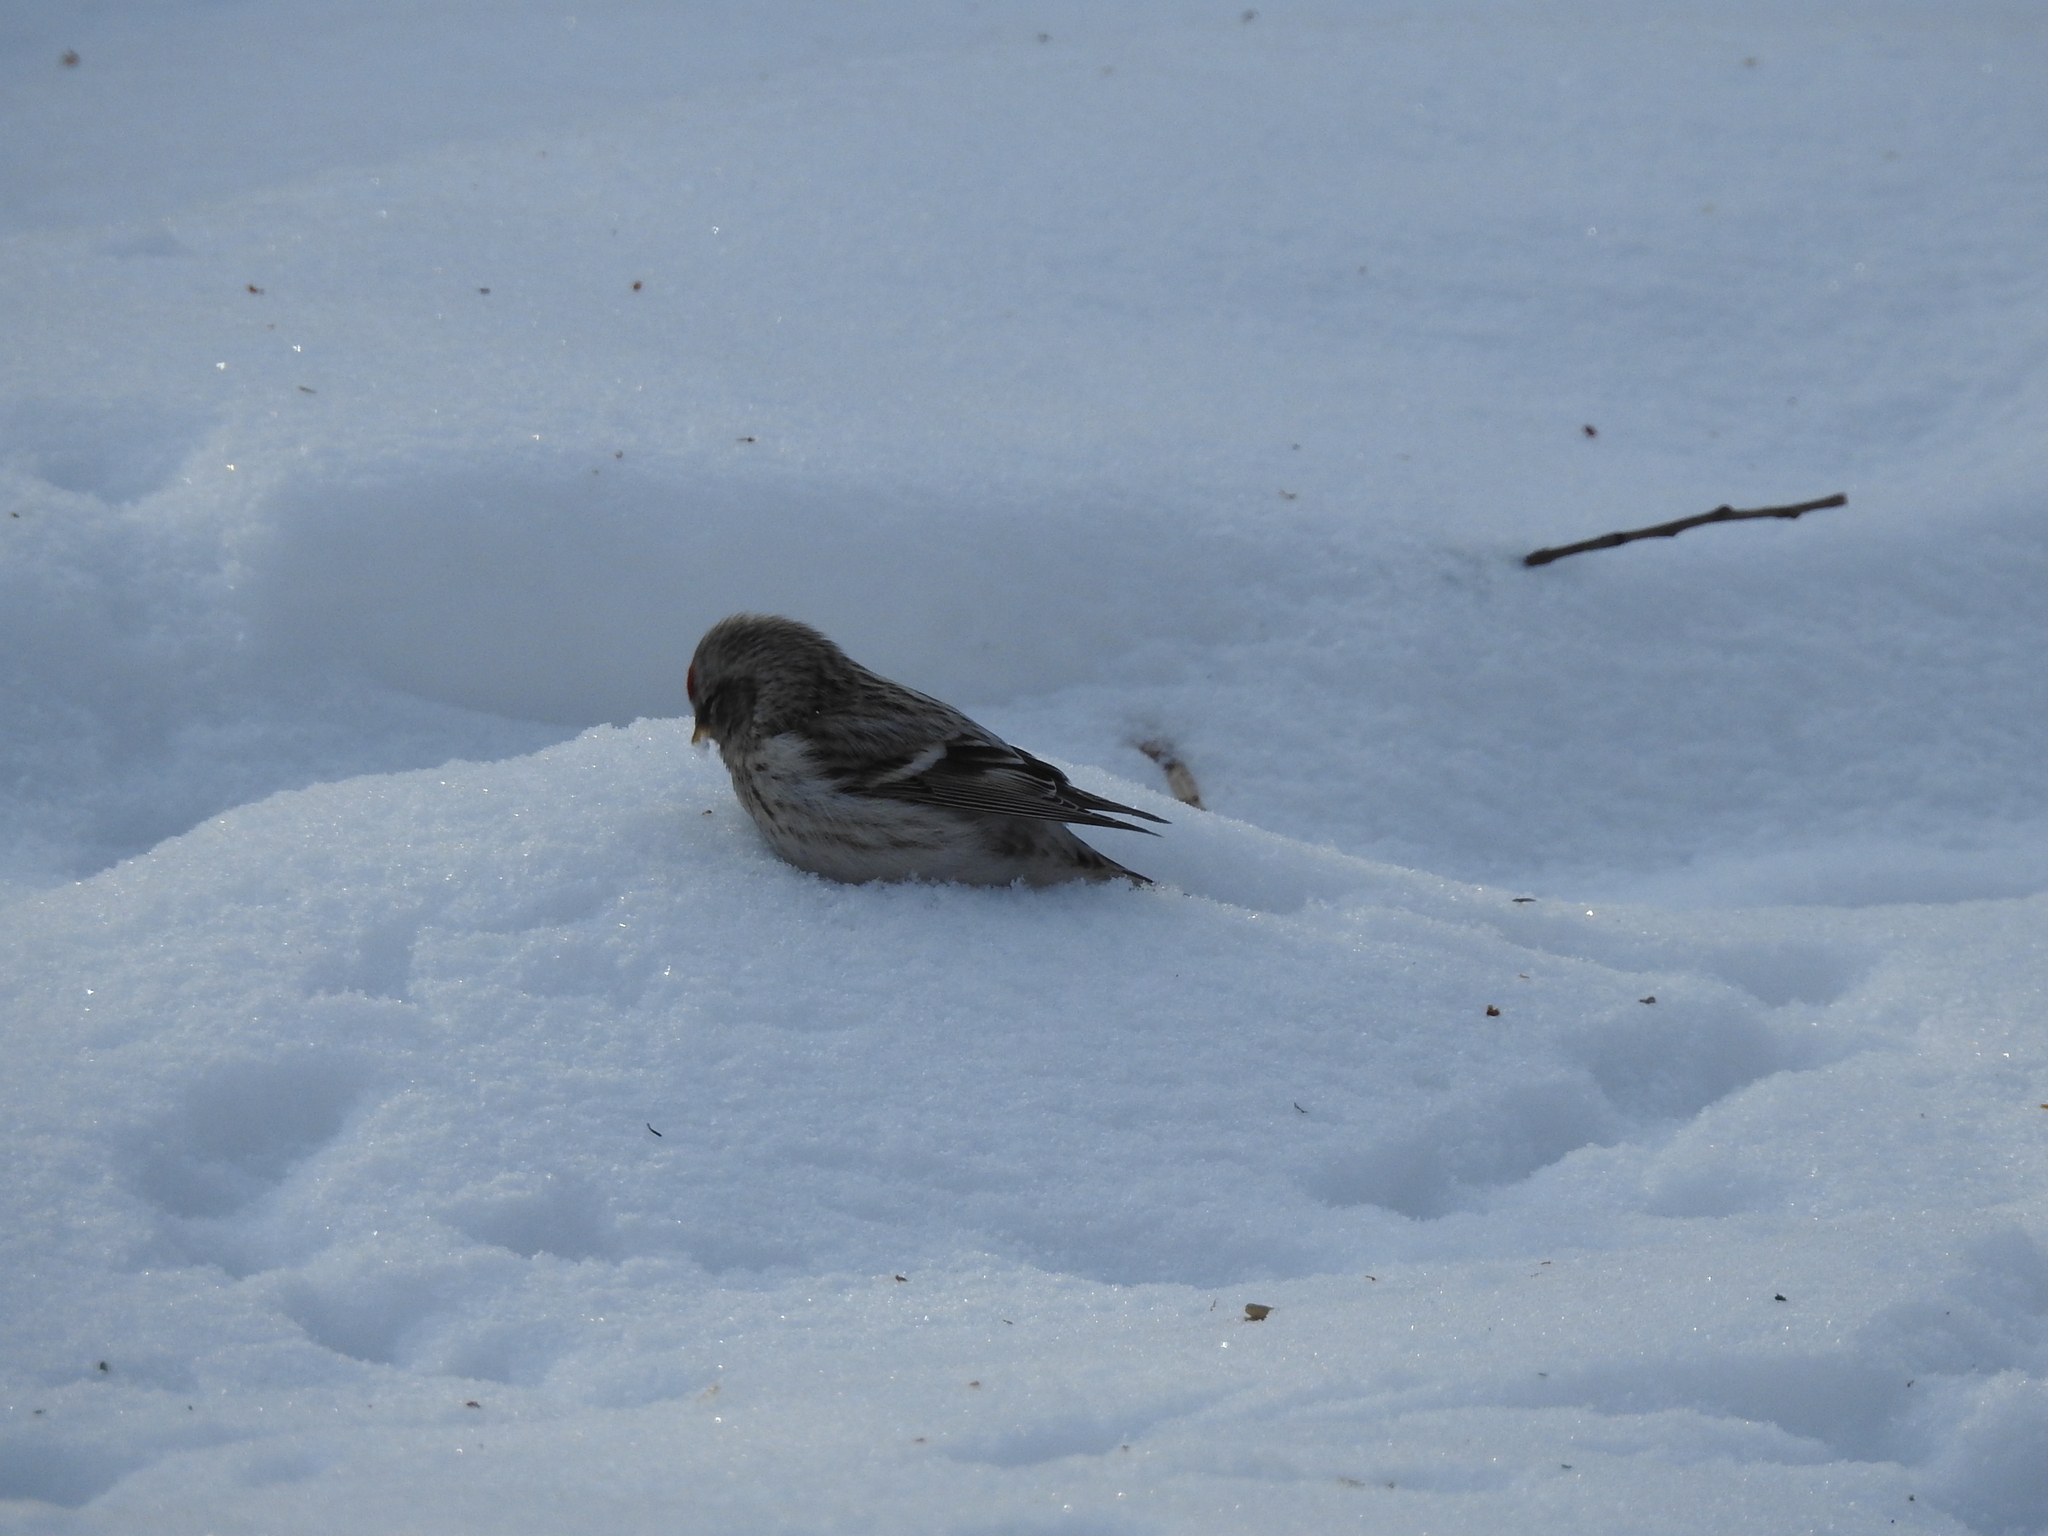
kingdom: Animalia
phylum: Chordata
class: Aves
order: Passeriformes
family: Fringillidae
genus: Acanthis
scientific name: Acanthis flammea
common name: Common redpoll
